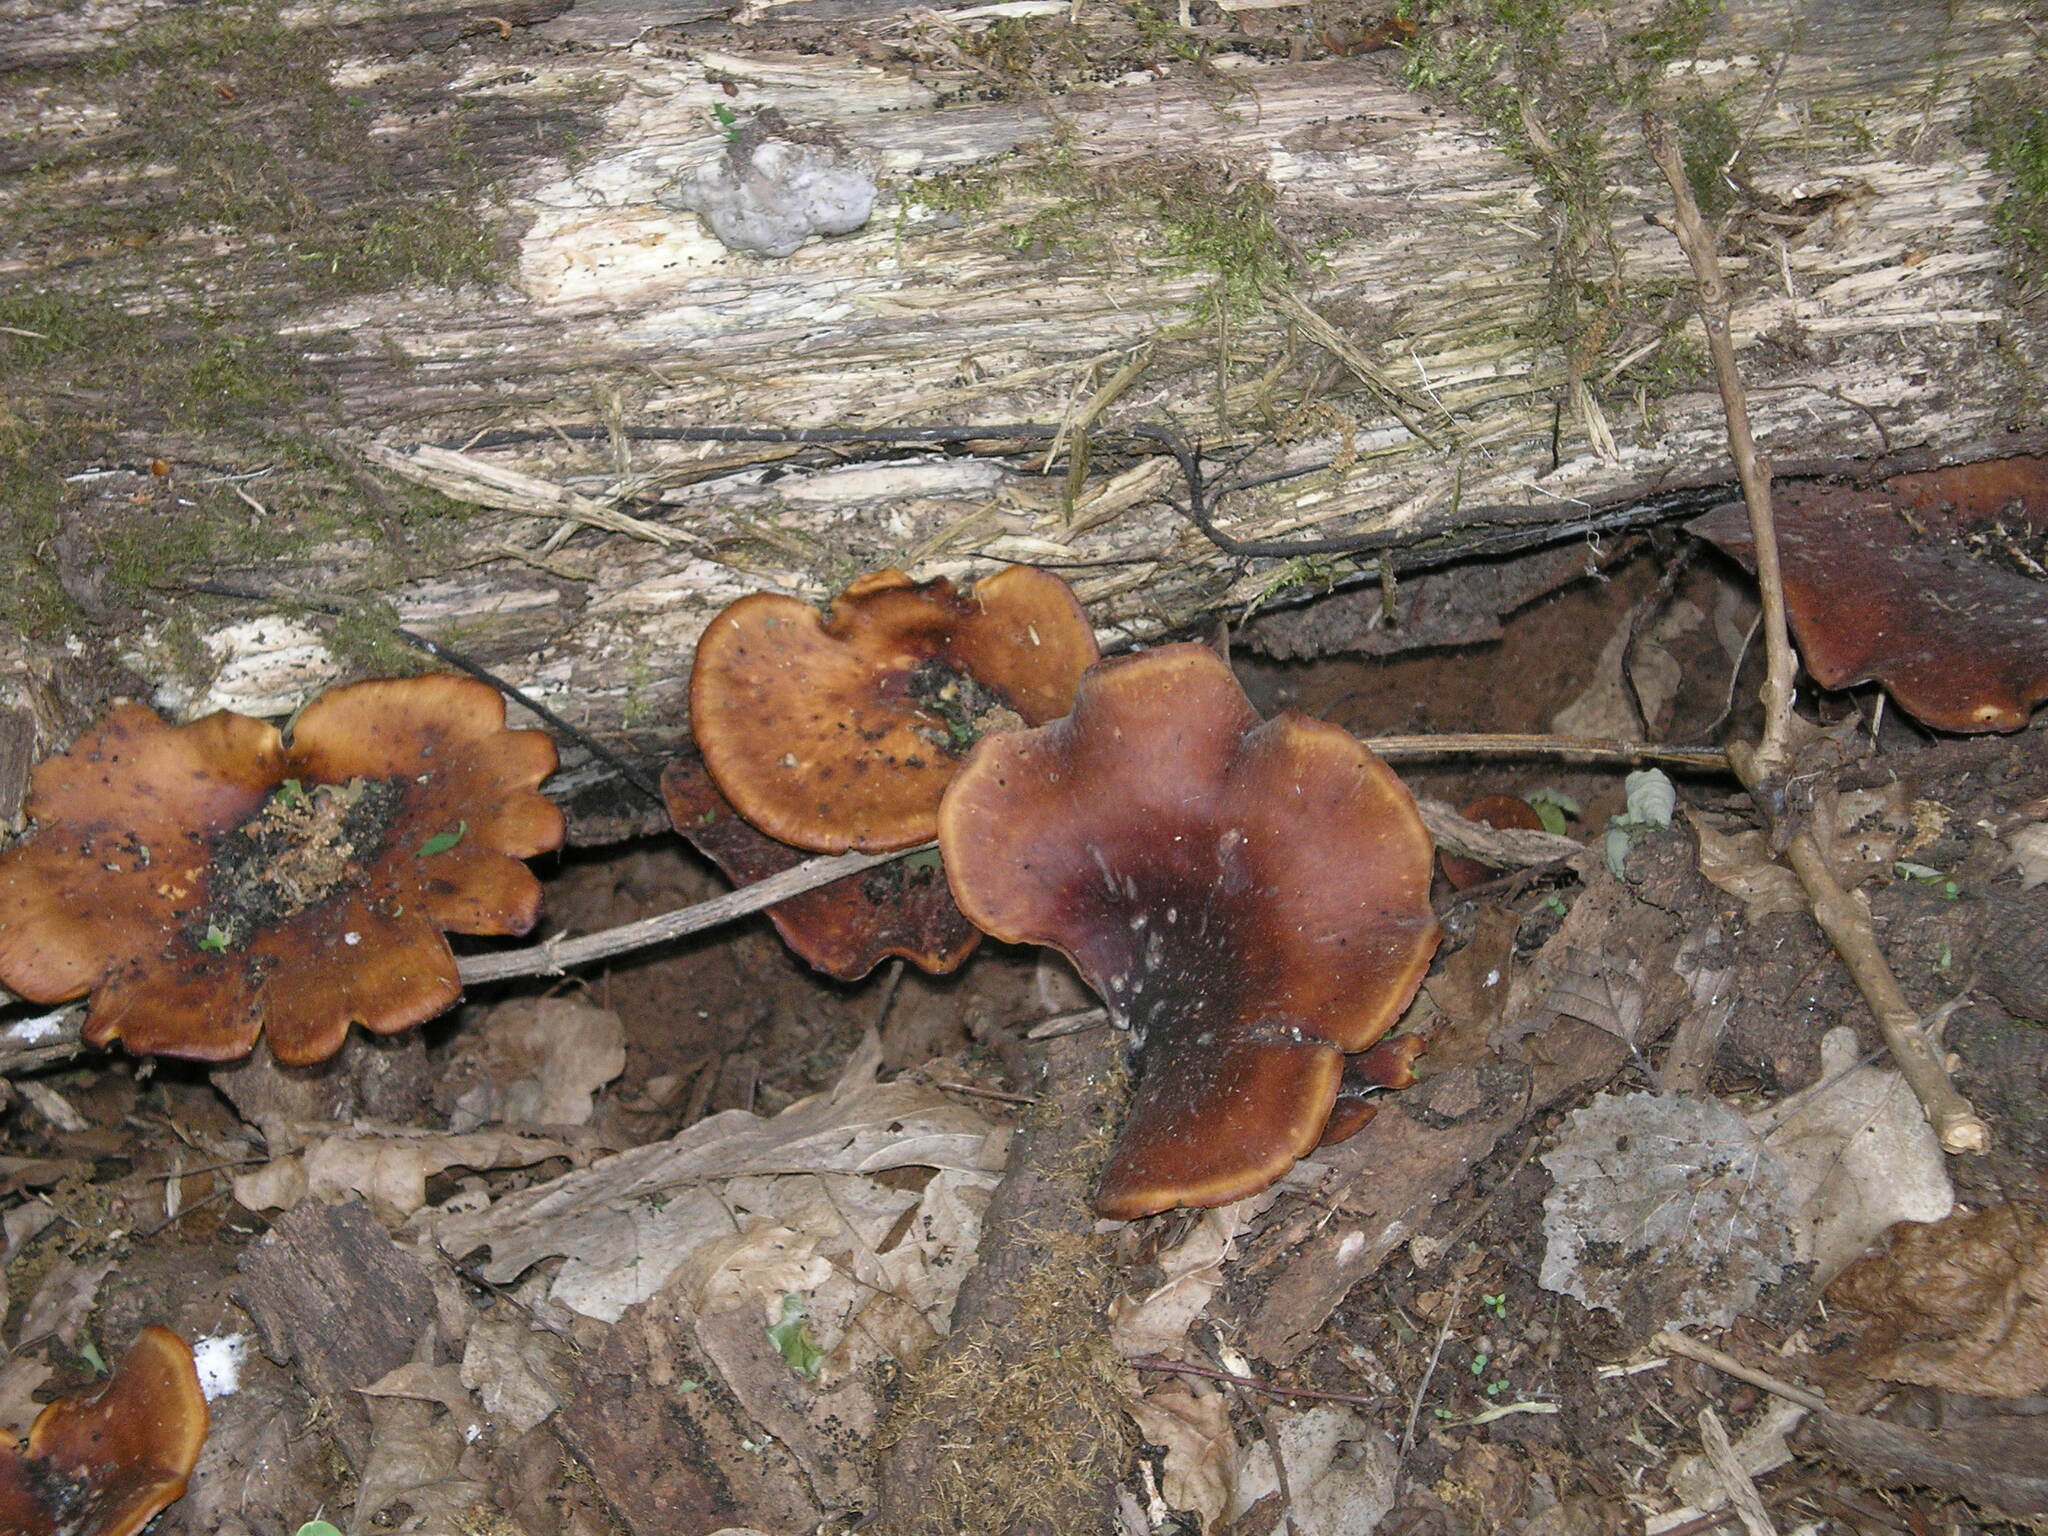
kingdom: Fungi
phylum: Basidiomycota
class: Agaricomycetes
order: Polyporales
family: Polyporaceae
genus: Picipes
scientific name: Picipes badius
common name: Bay polypore
